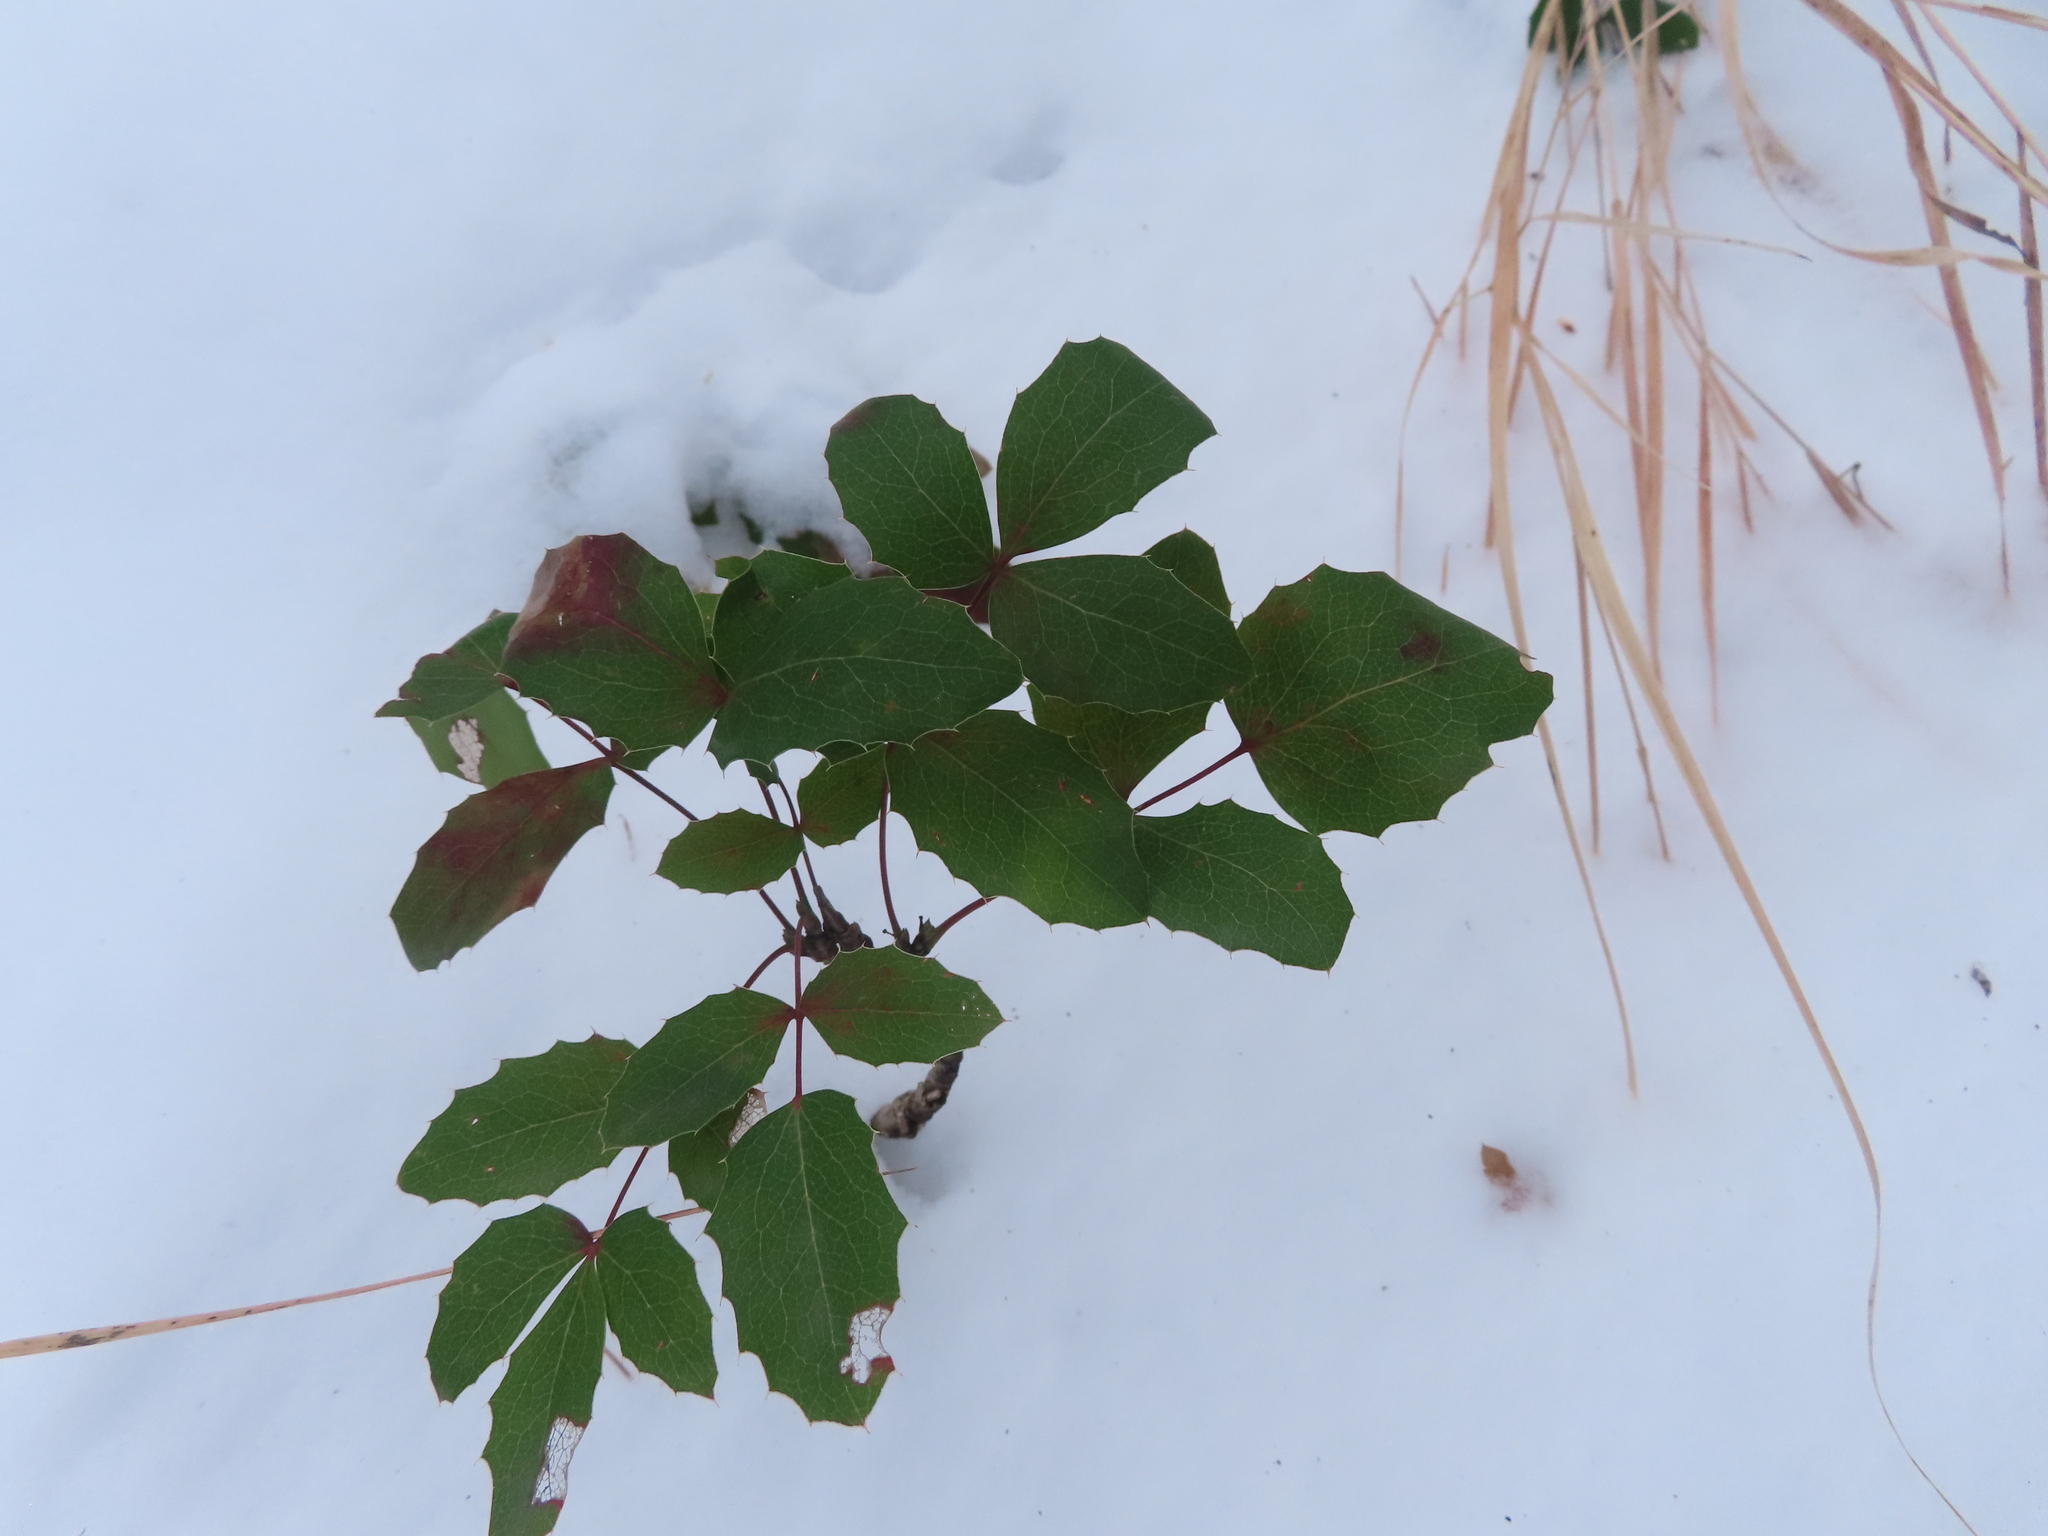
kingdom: Plantae
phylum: Tracheophyta
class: Magnoliopsida
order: Ranunculales
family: Berberidaceae
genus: Mahonia
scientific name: Mahonia repens
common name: Creeping oregon-grape
